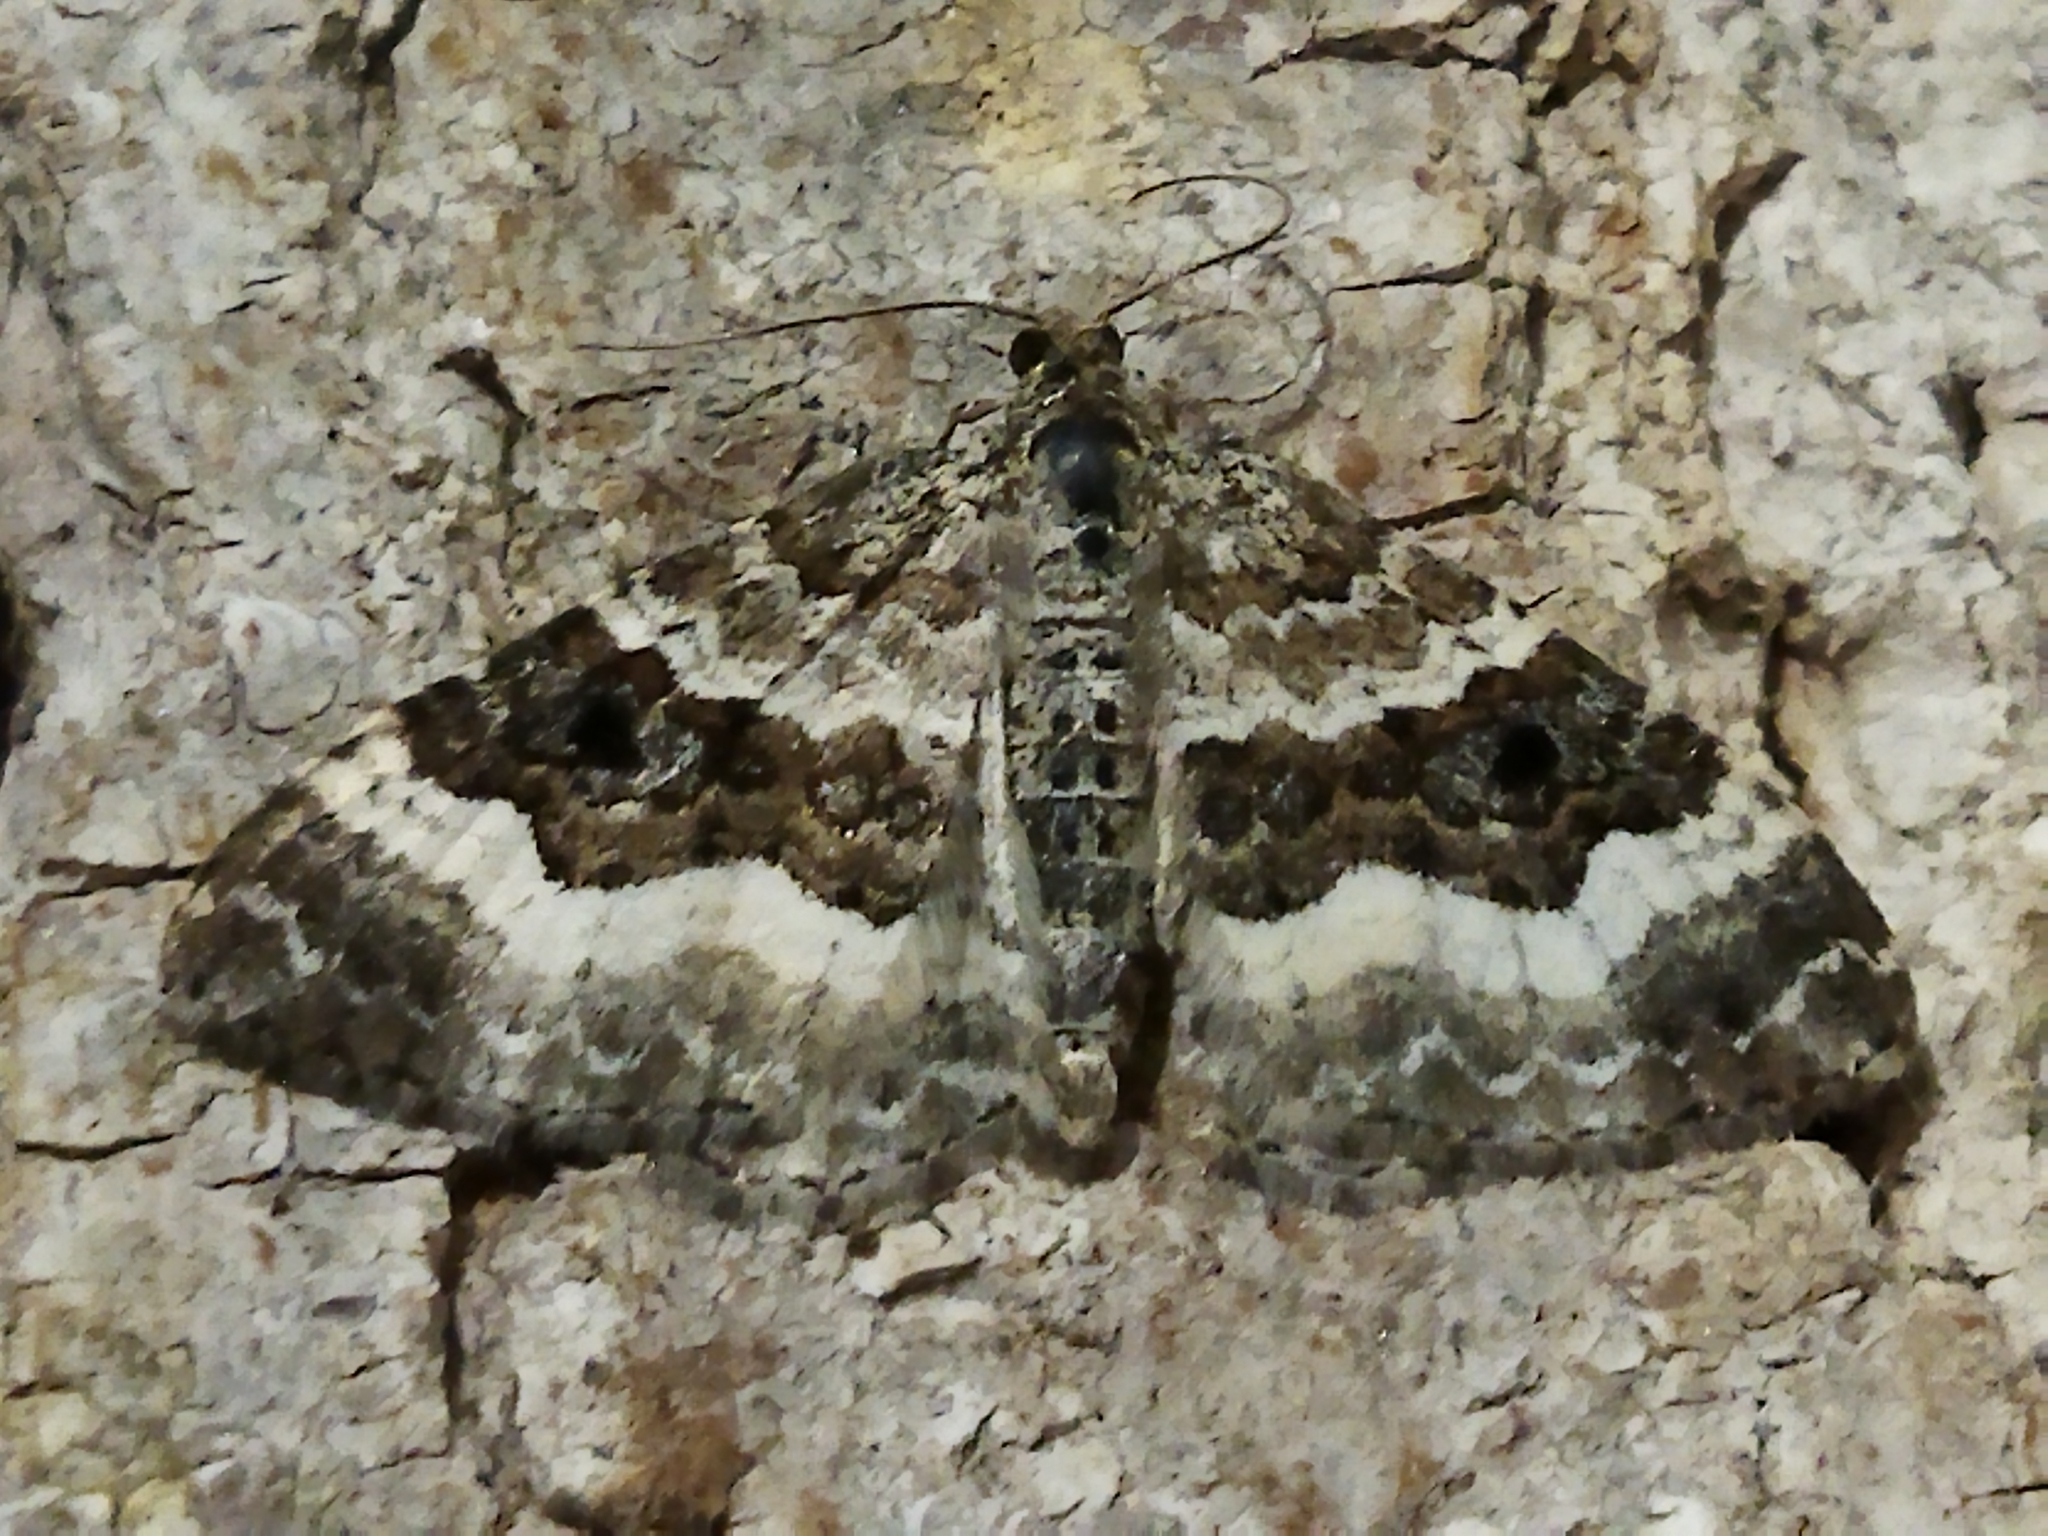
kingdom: Animalia
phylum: Arthropoda
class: Insecta
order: Lepidoptera
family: Geometridae
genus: Epirrhoe
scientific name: Epirrhoe alternata
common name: Common carpet
